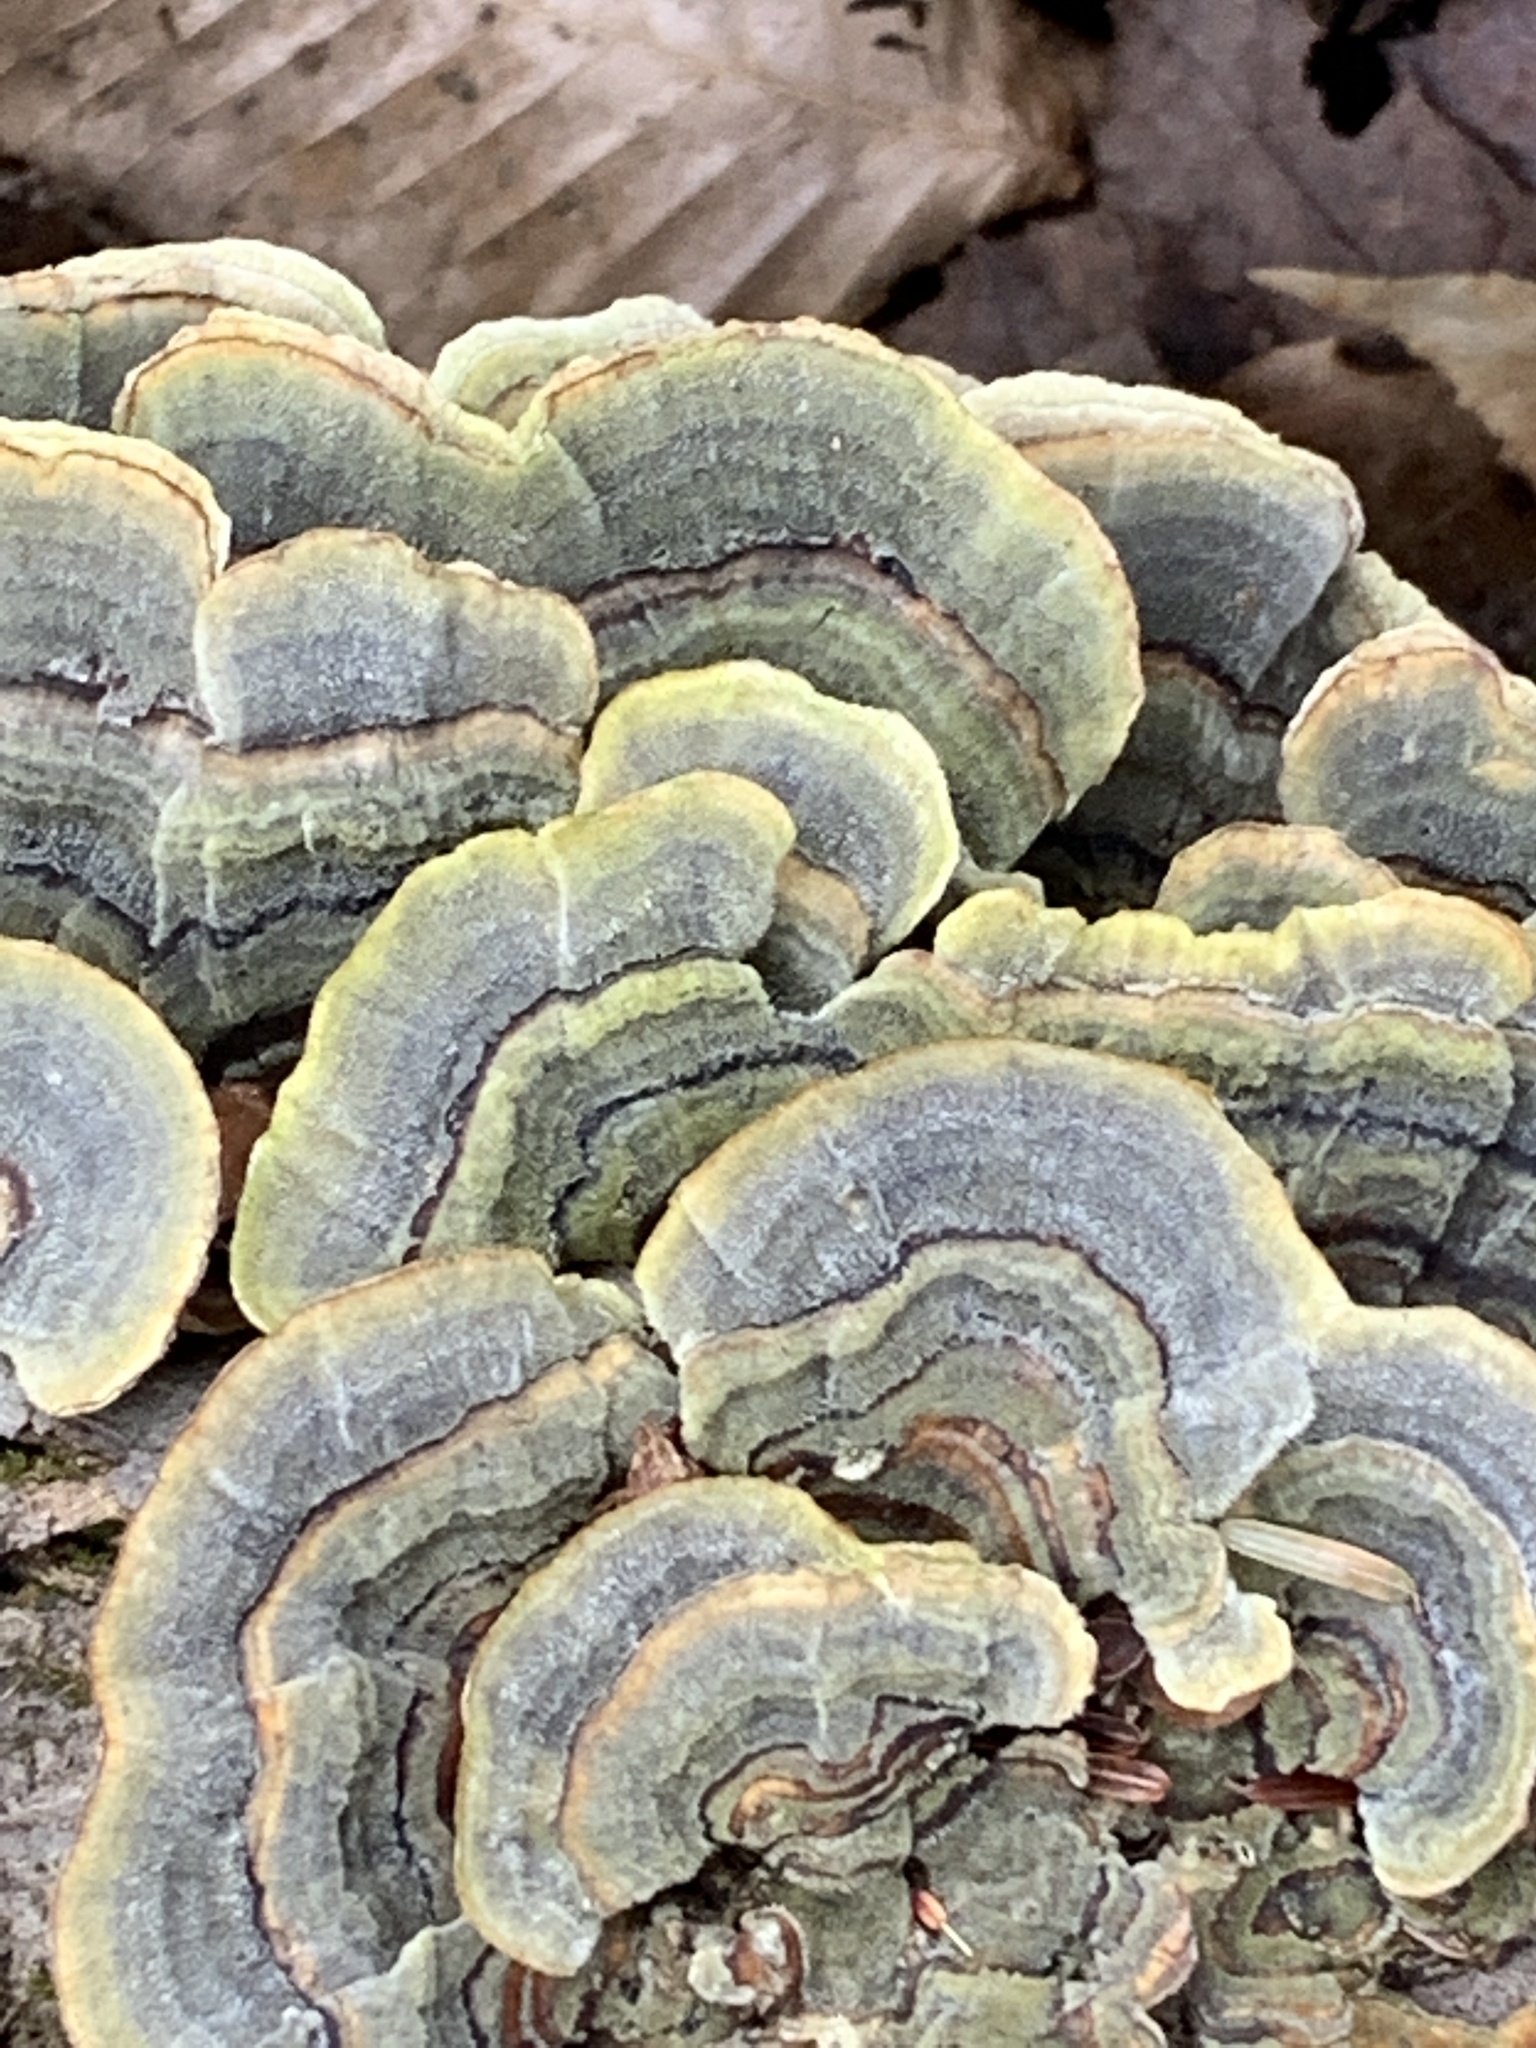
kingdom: Fungi
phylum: Basidiomycota
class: Agaricomycetes
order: Polyporales
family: Polyporaceae
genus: Trametes
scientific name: Trametes versicolor
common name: Turkeytail
